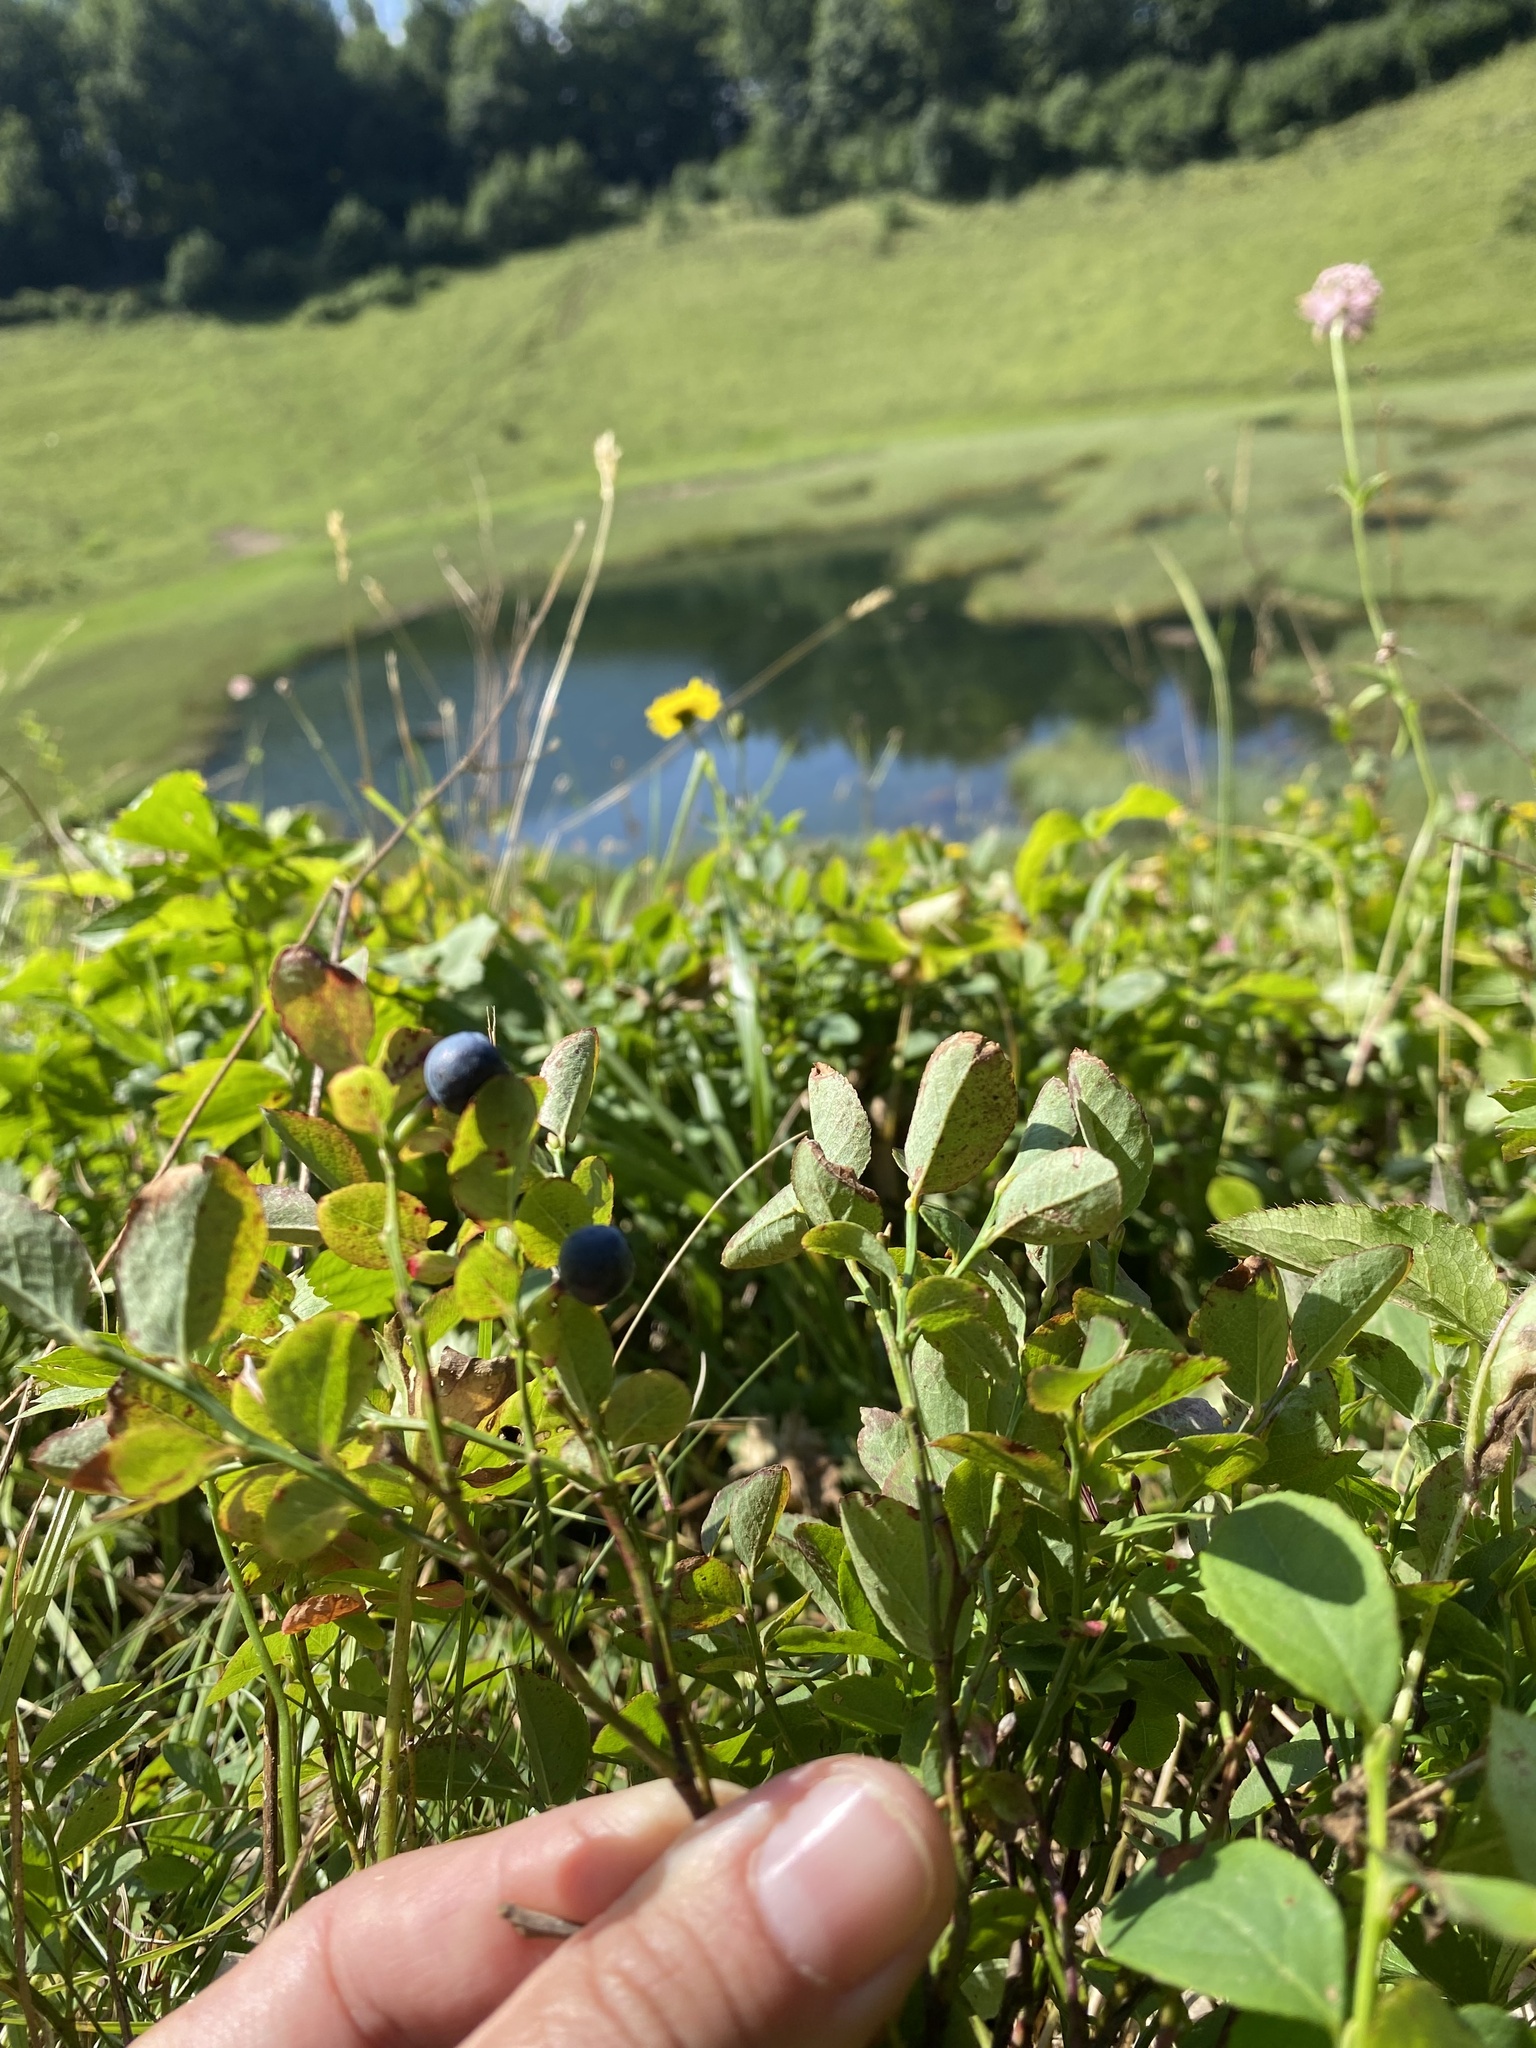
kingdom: Plantae
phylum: Tracheophyta
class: Magnoliopsida
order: Ericales
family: Ericaceae
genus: Vaccinium
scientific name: Vaccinium myrtillus
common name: Bilberry
